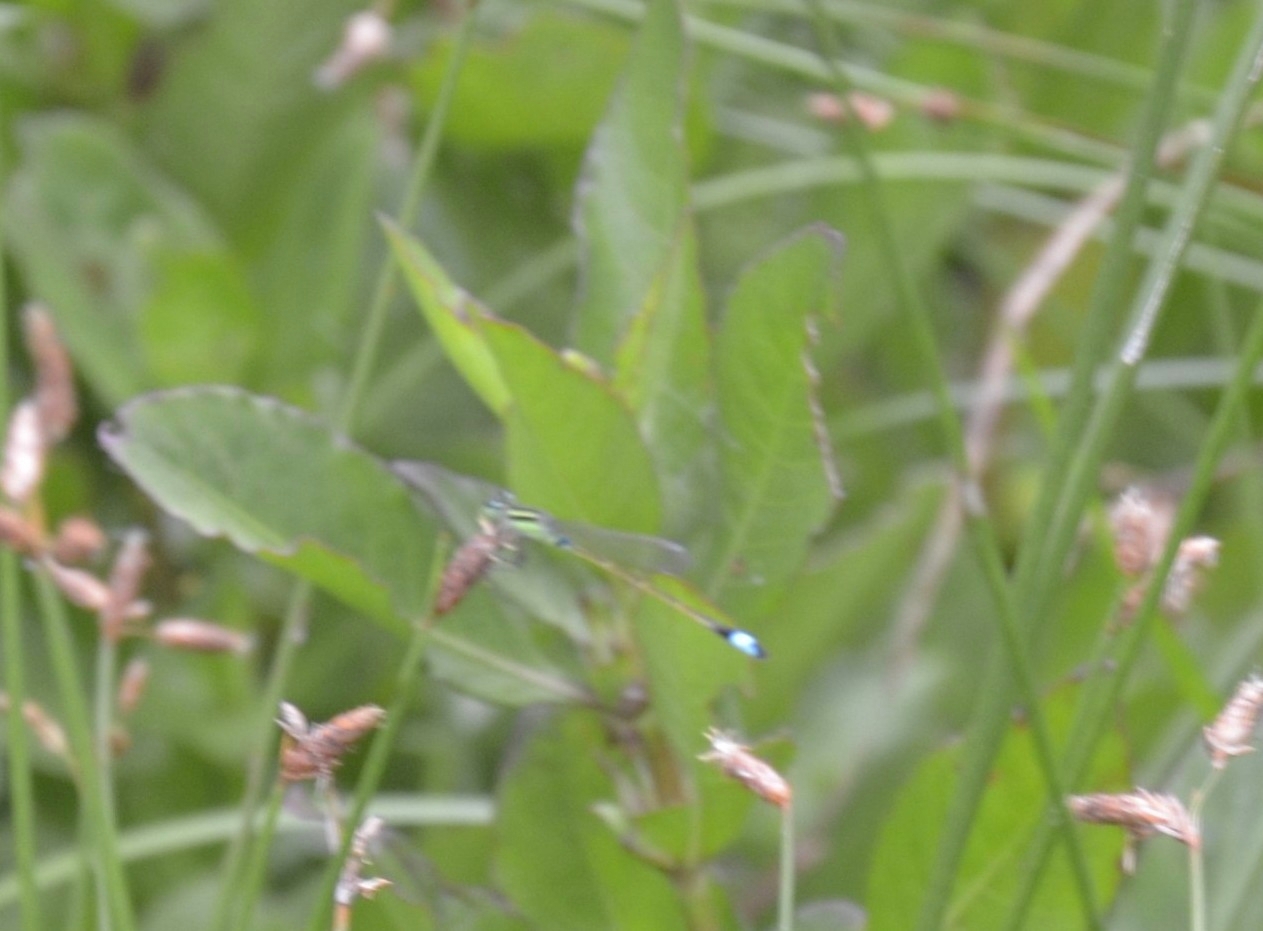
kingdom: Animalia
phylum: Arthropoda
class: Insecta
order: Odonata
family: Coenagrionidae
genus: Ischnura
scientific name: Ischnura senegalensis
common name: Tropical bluetail
